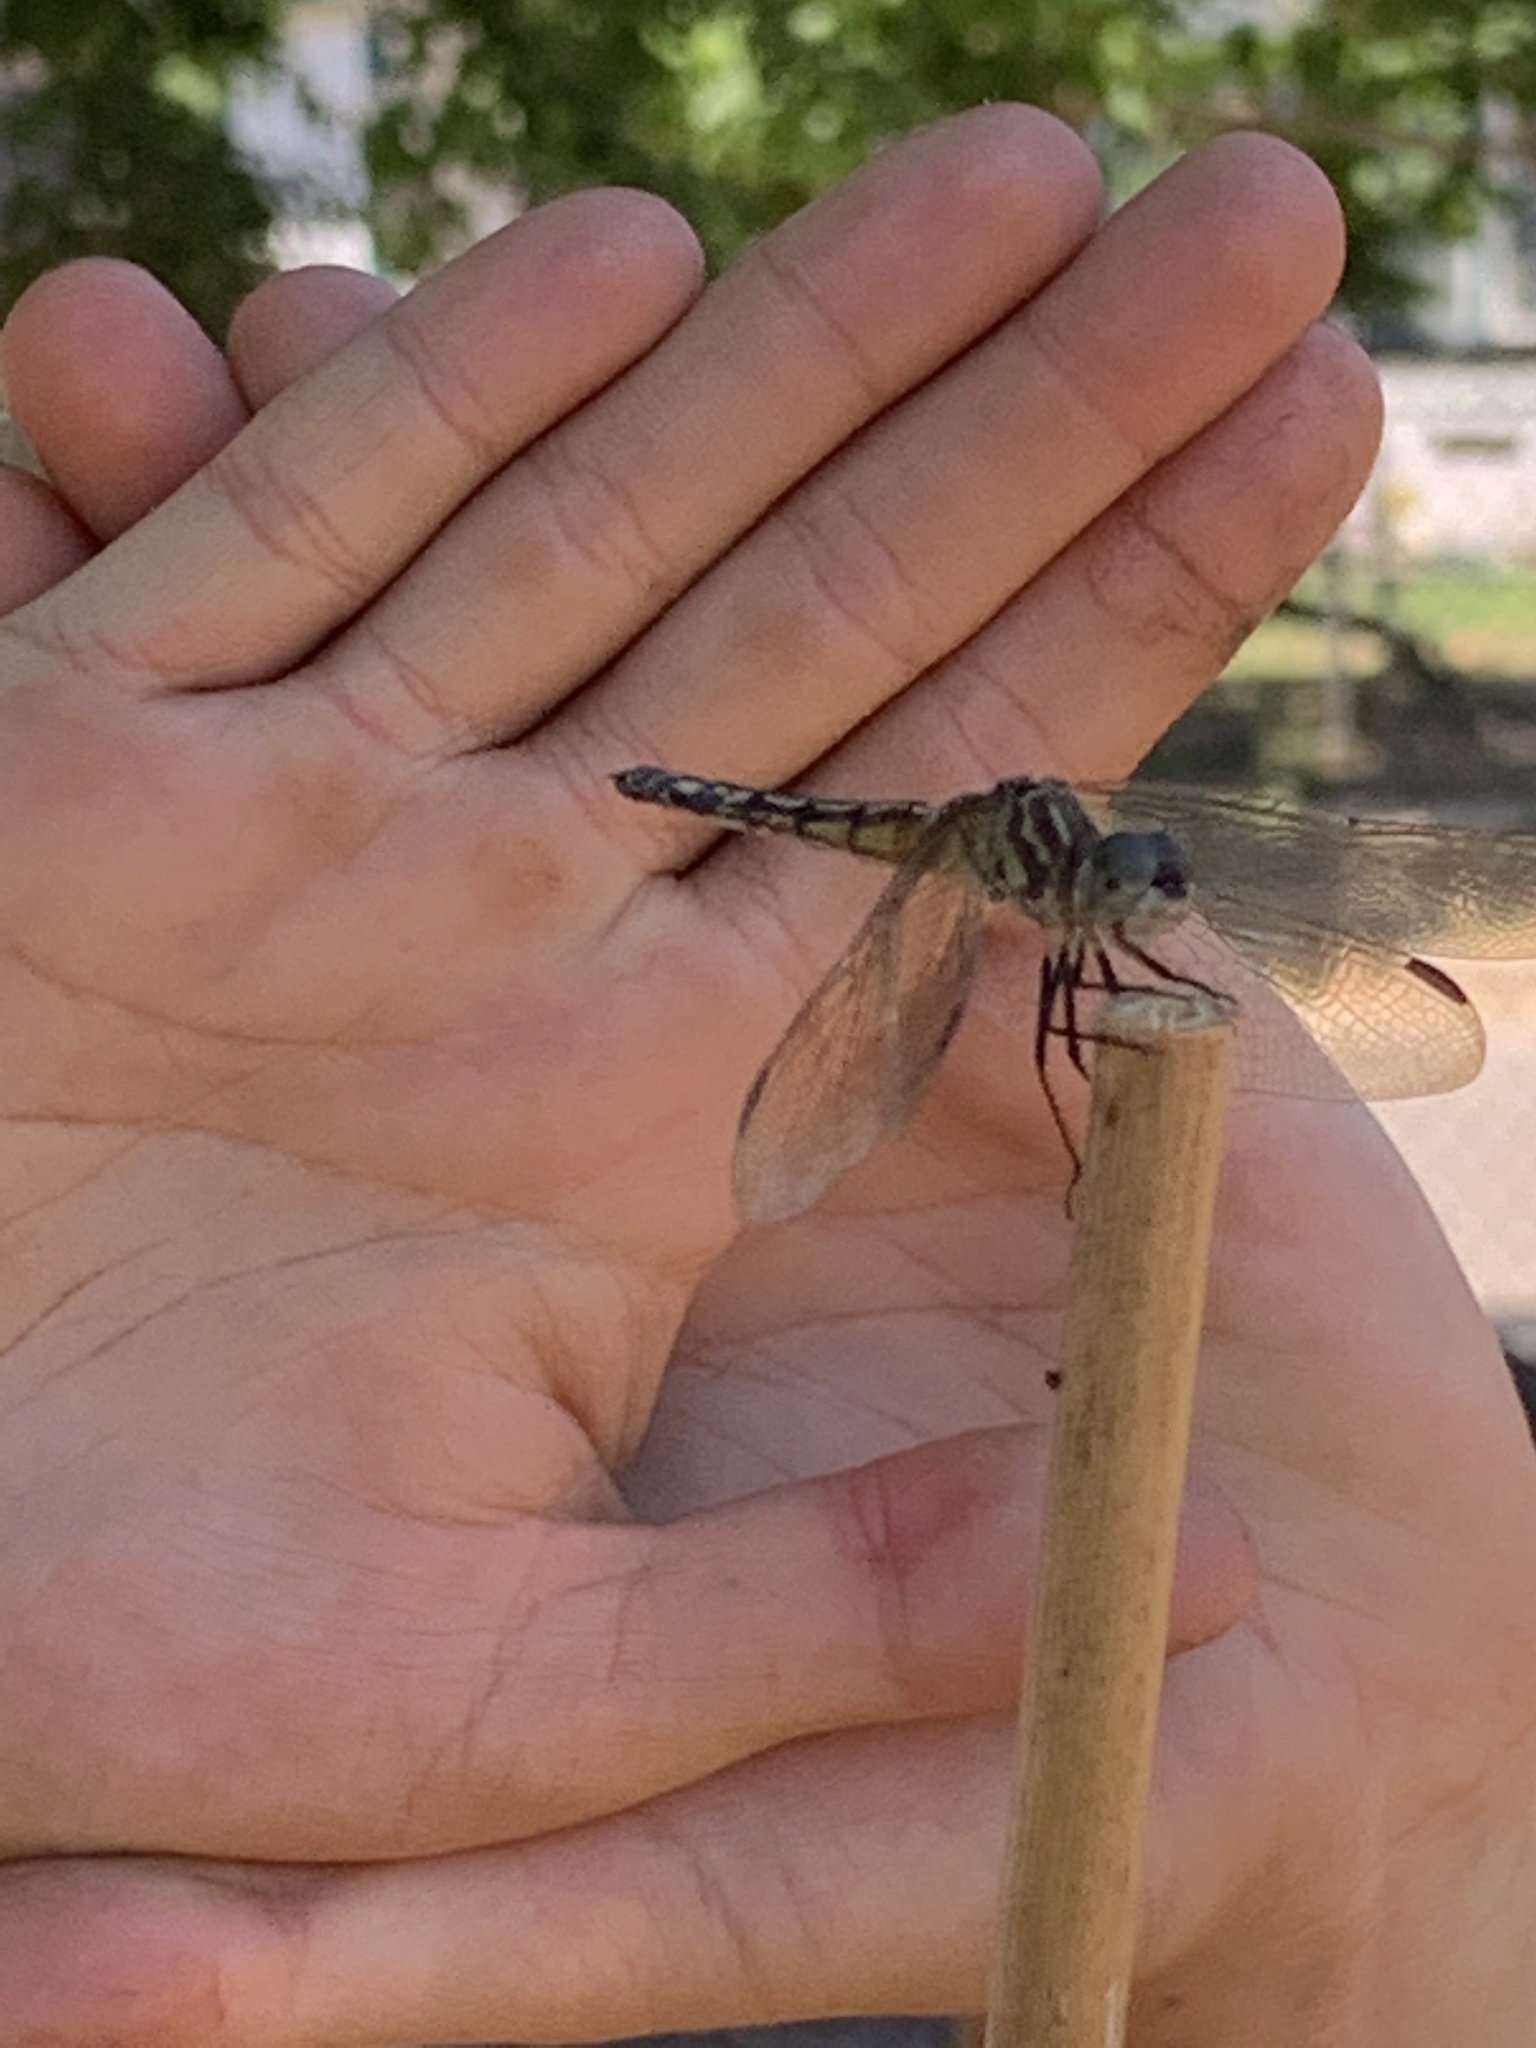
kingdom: Animalia
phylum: Arthropoda
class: Insecta
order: Odonata
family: Libellulidae
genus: Pachydiplax
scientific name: Pachydiplax longipennis
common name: Blue dasher
